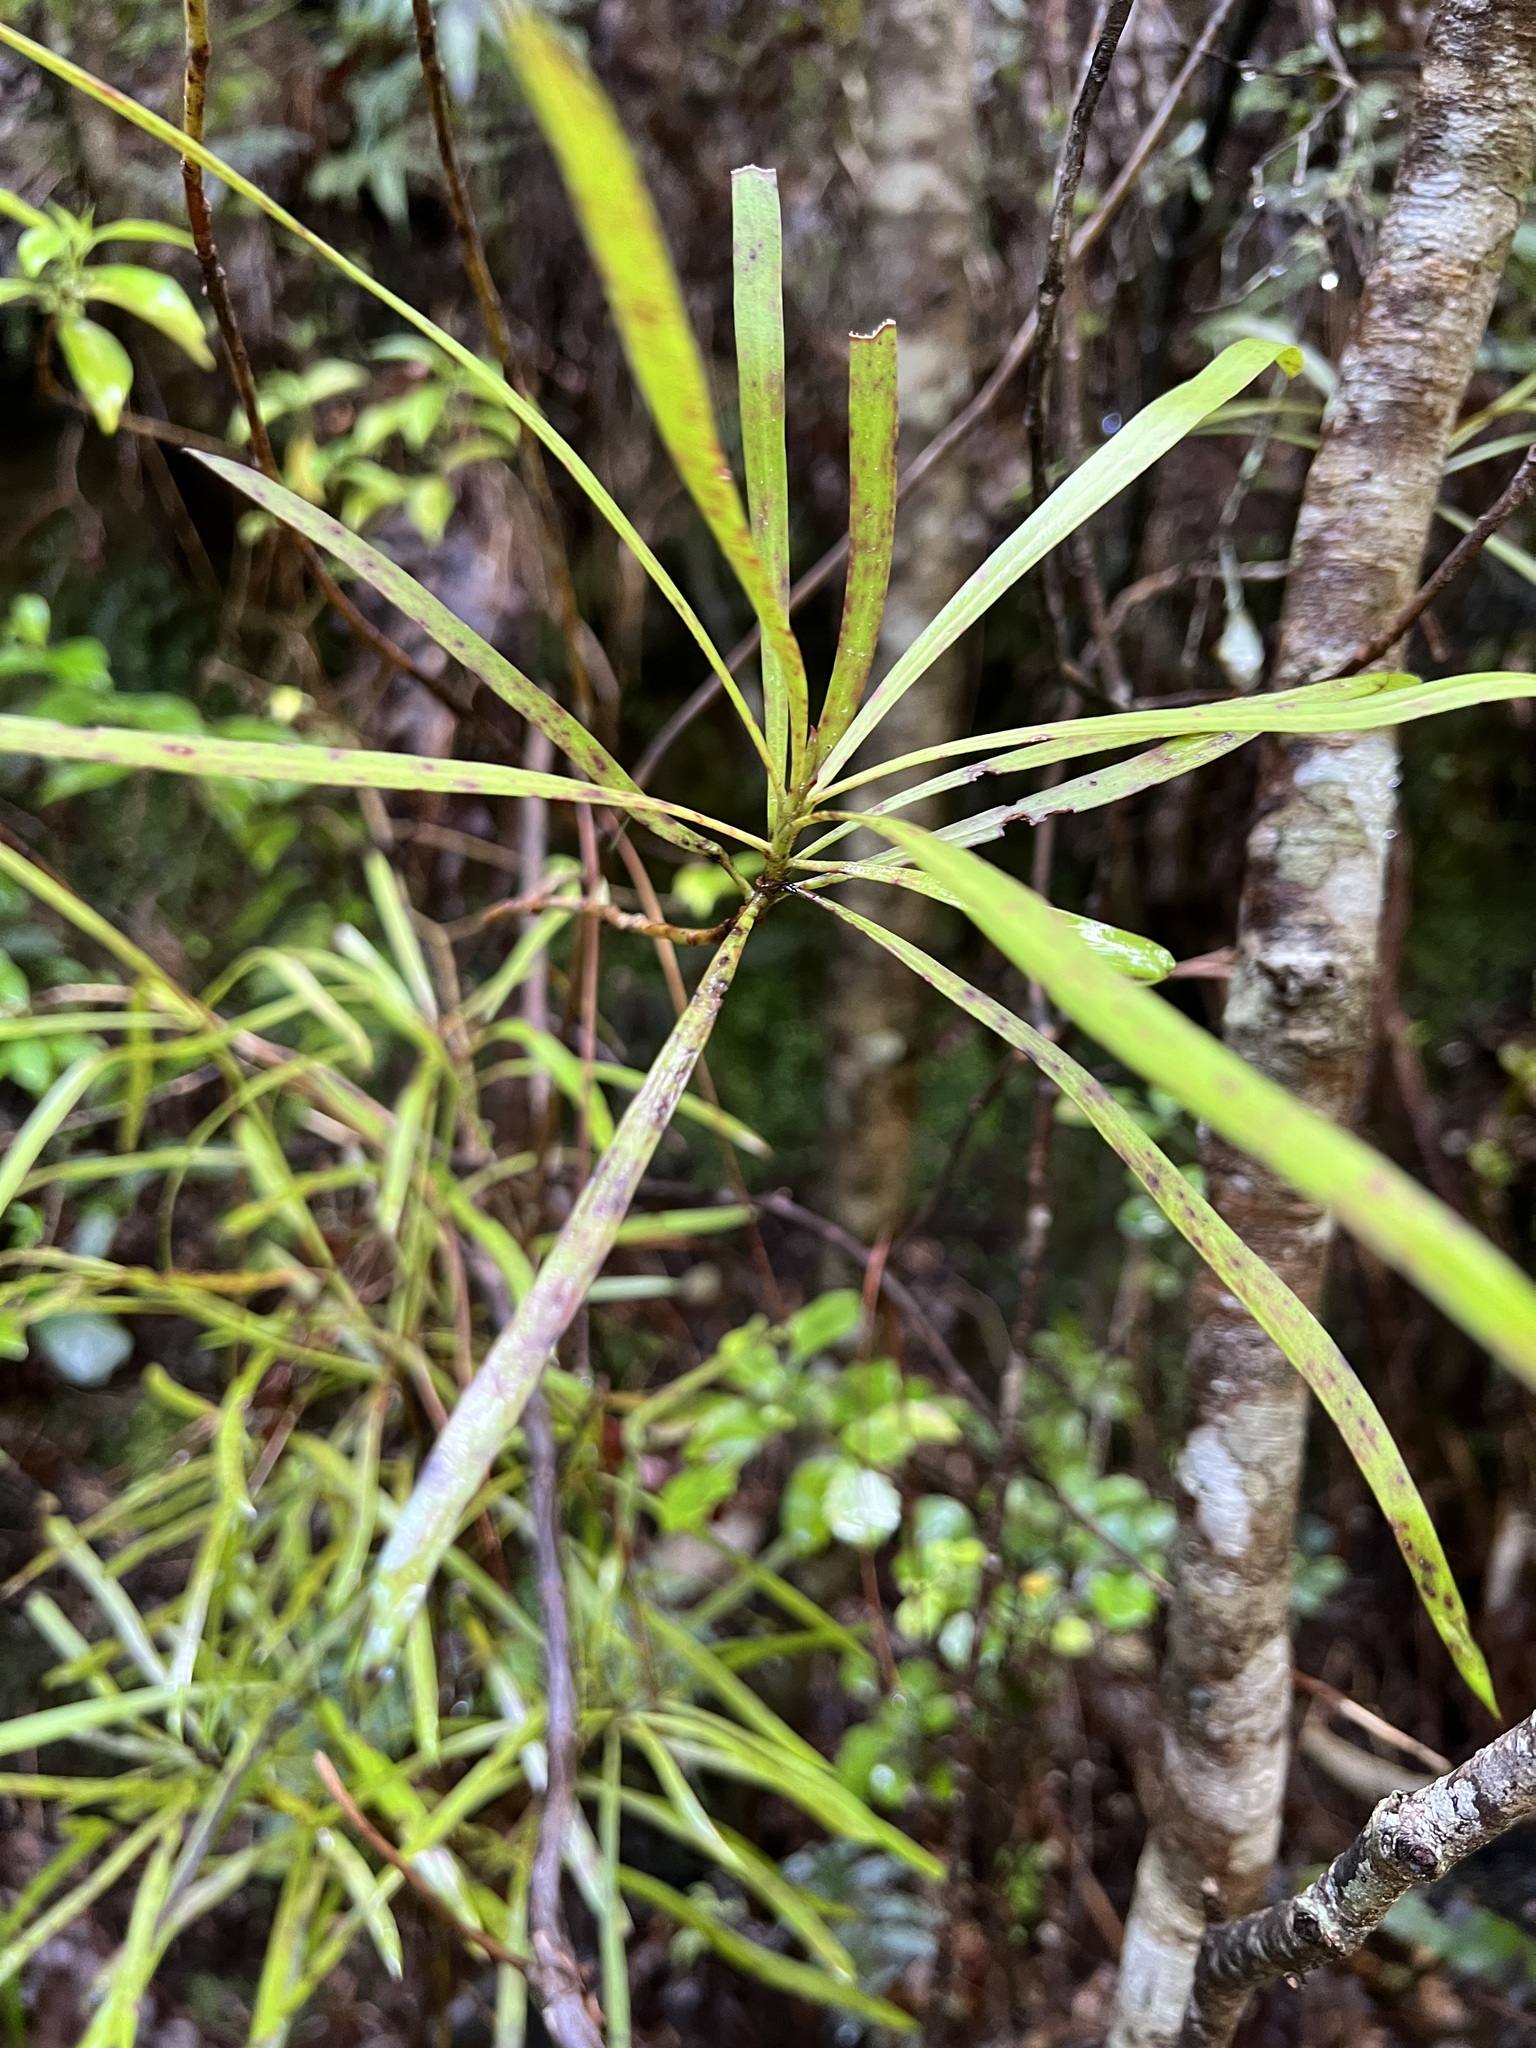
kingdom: Plantae
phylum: Tracheophyta
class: Magnoliopsida
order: Proteales
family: Proteaceae
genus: Toronia
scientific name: Toronia toru
